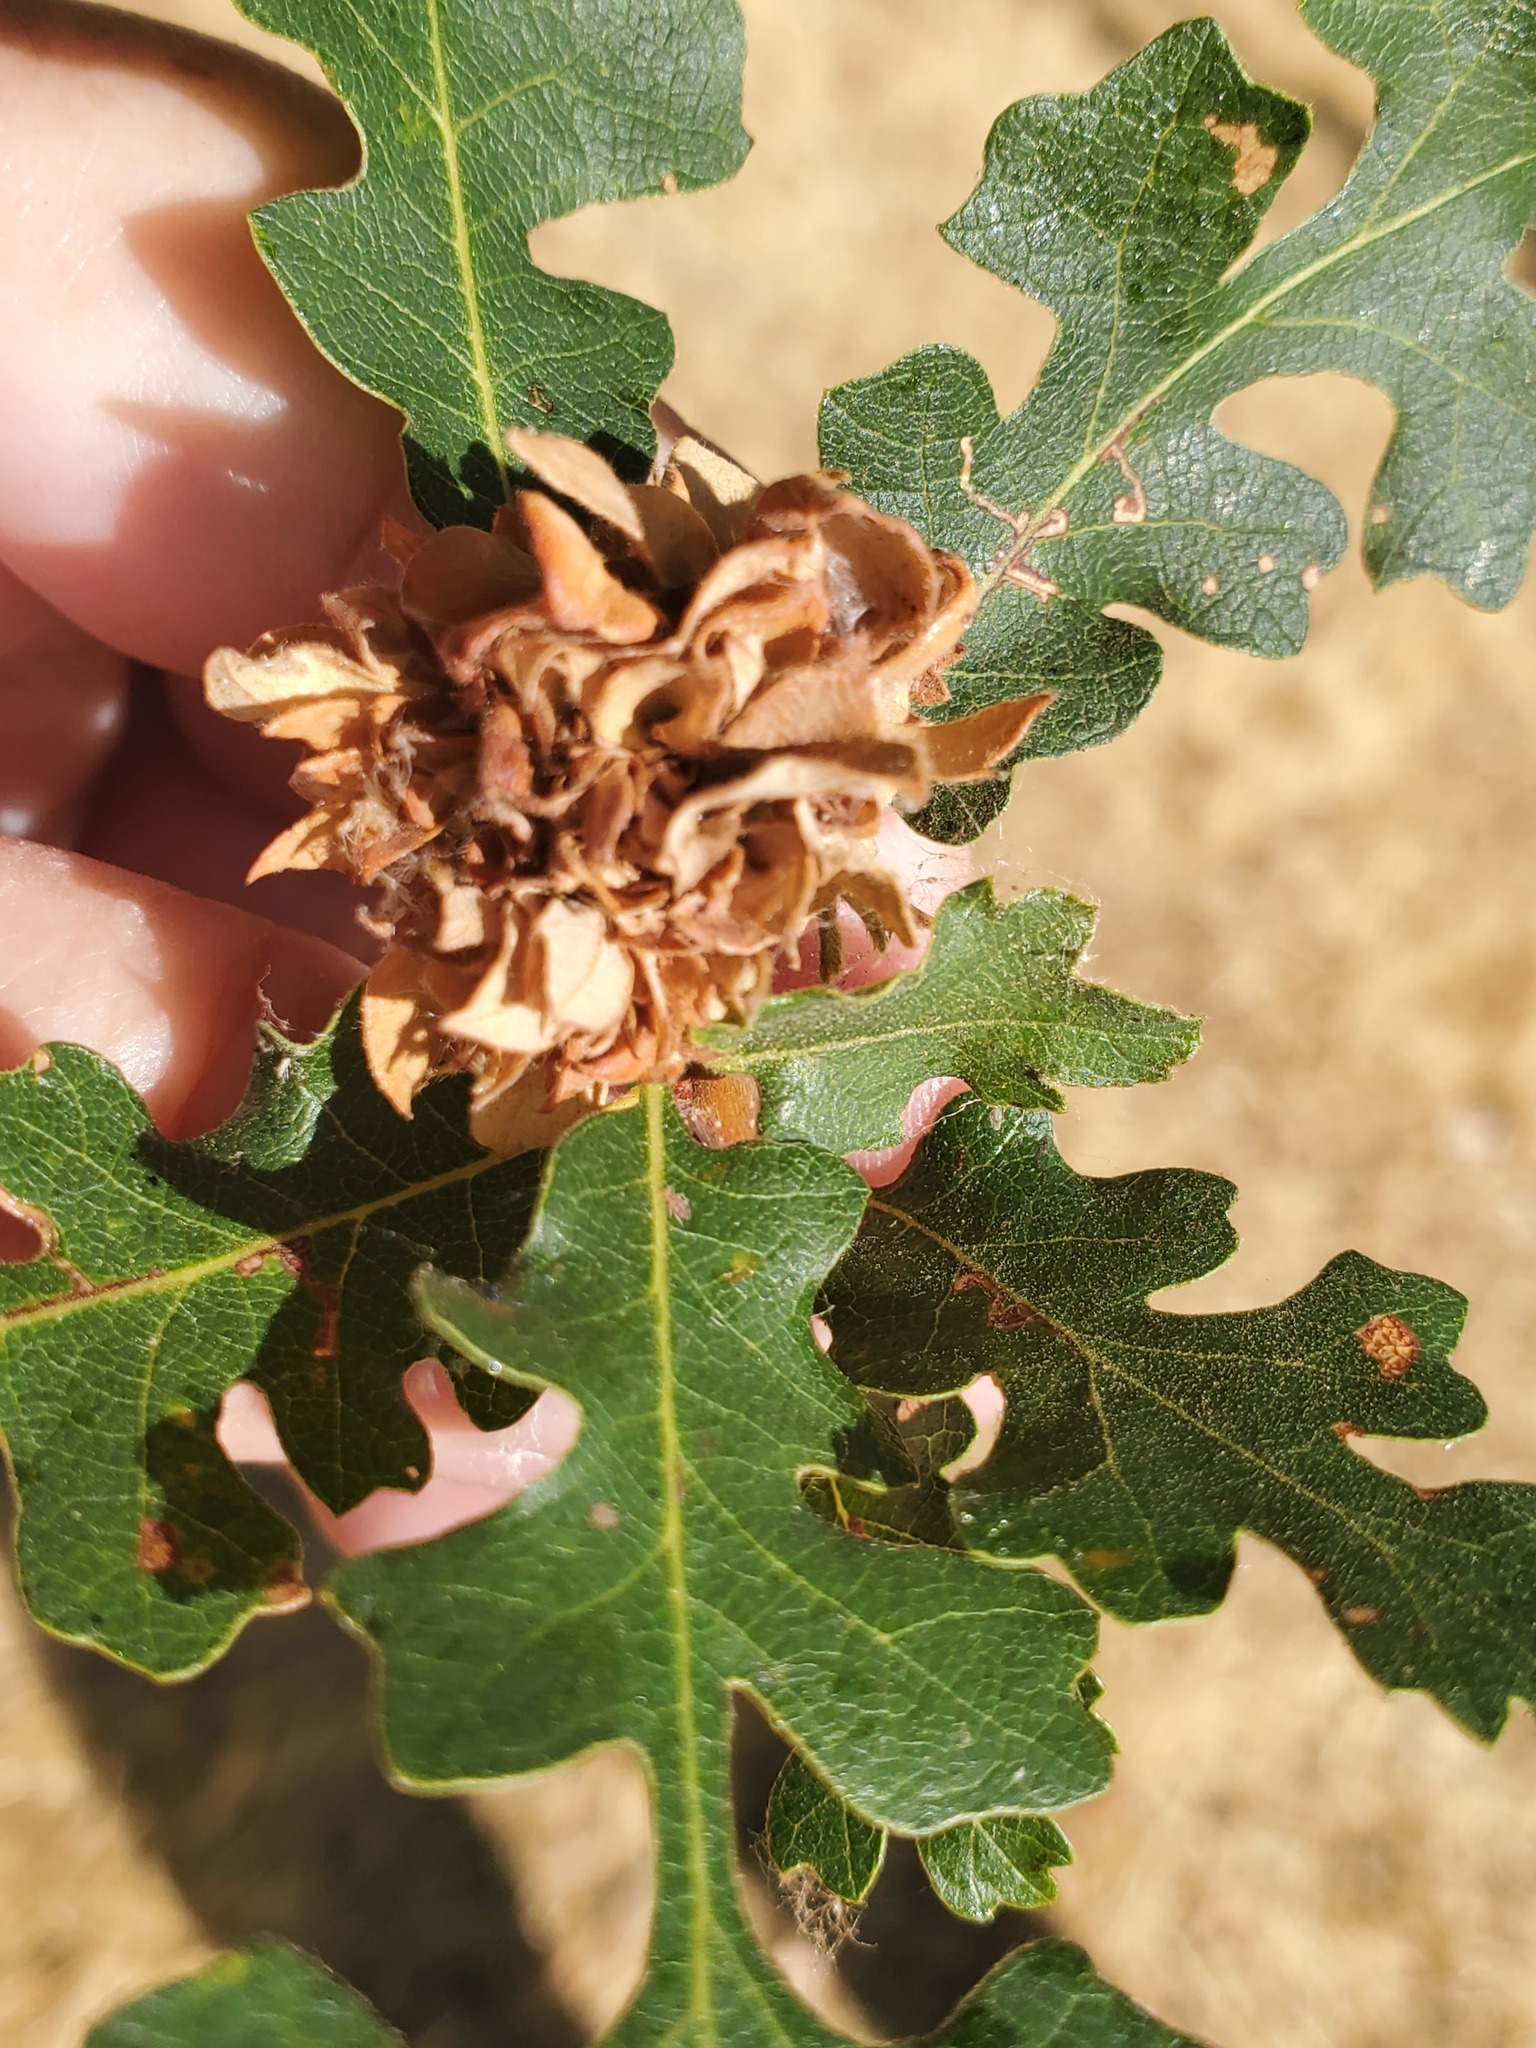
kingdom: Animalia
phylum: Arthropoda
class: Insecta
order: Hymenoptera
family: Cynipidae
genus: Andricus
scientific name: Andricus
